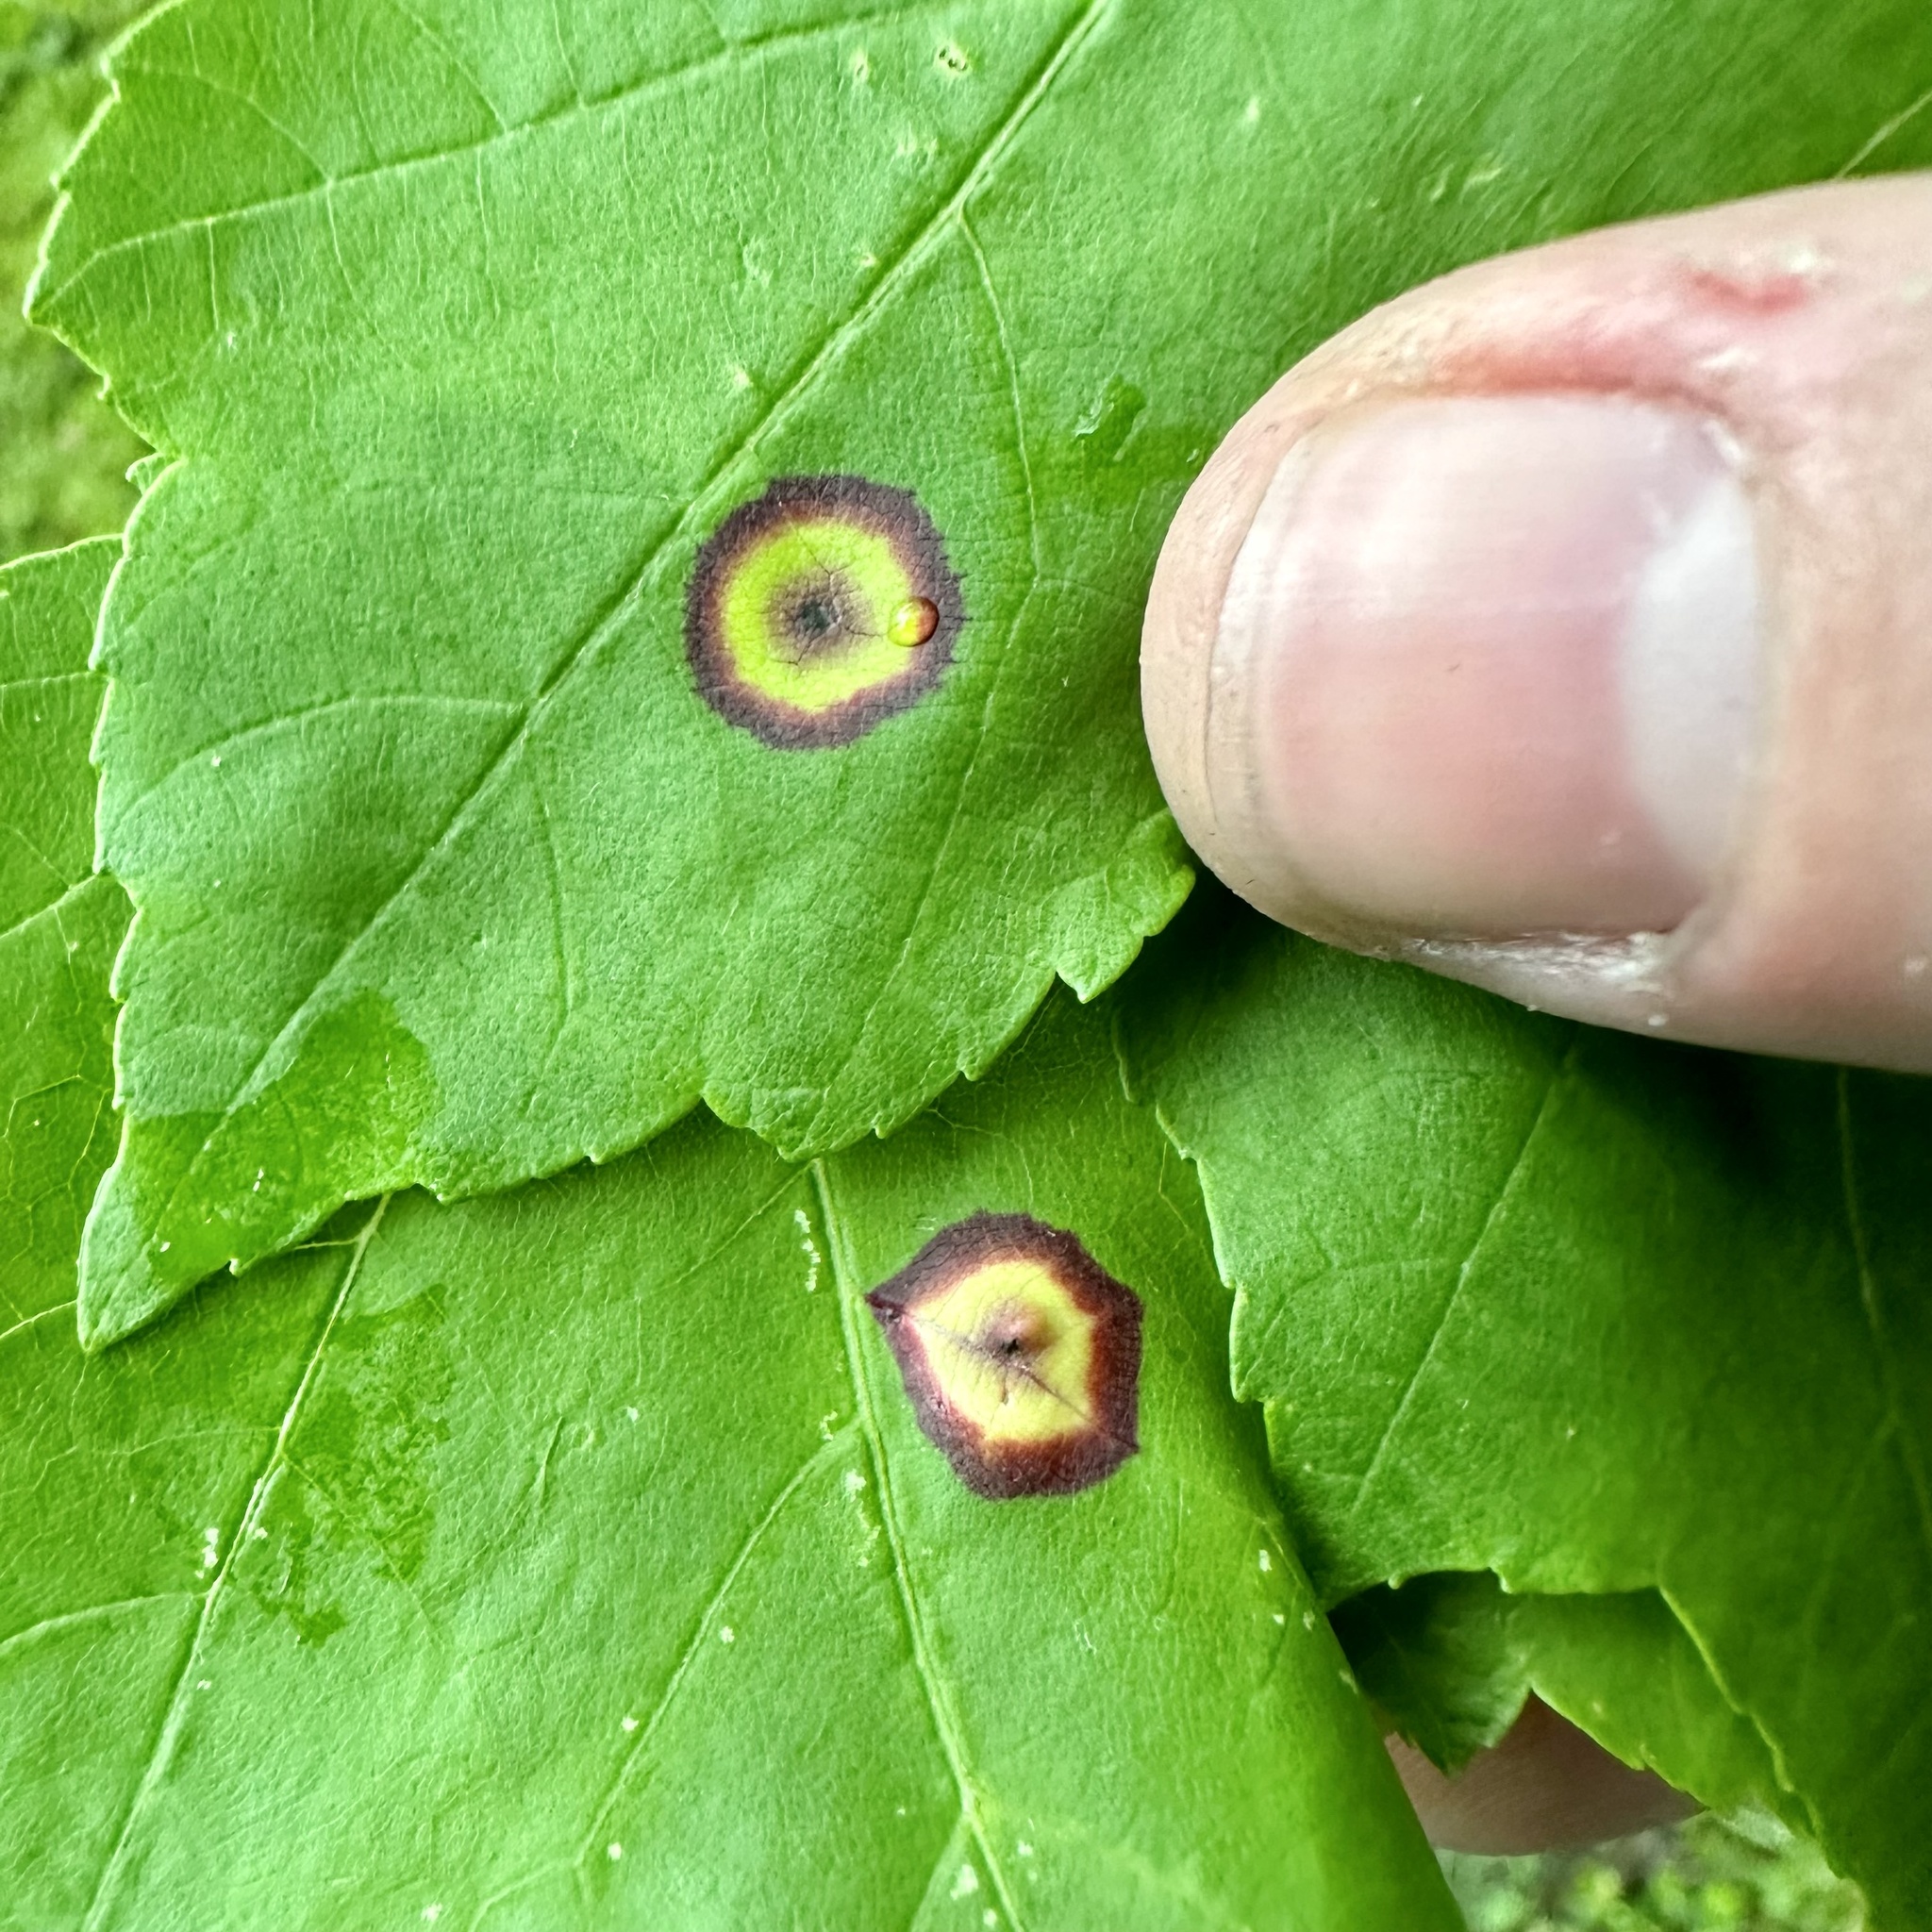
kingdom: Animalia
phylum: Arthropoda
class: Insecta
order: Diptera
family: Cecidomyiidae
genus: Acericecis
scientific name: Acericecis ocellaris
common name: Ocellate gall midge
